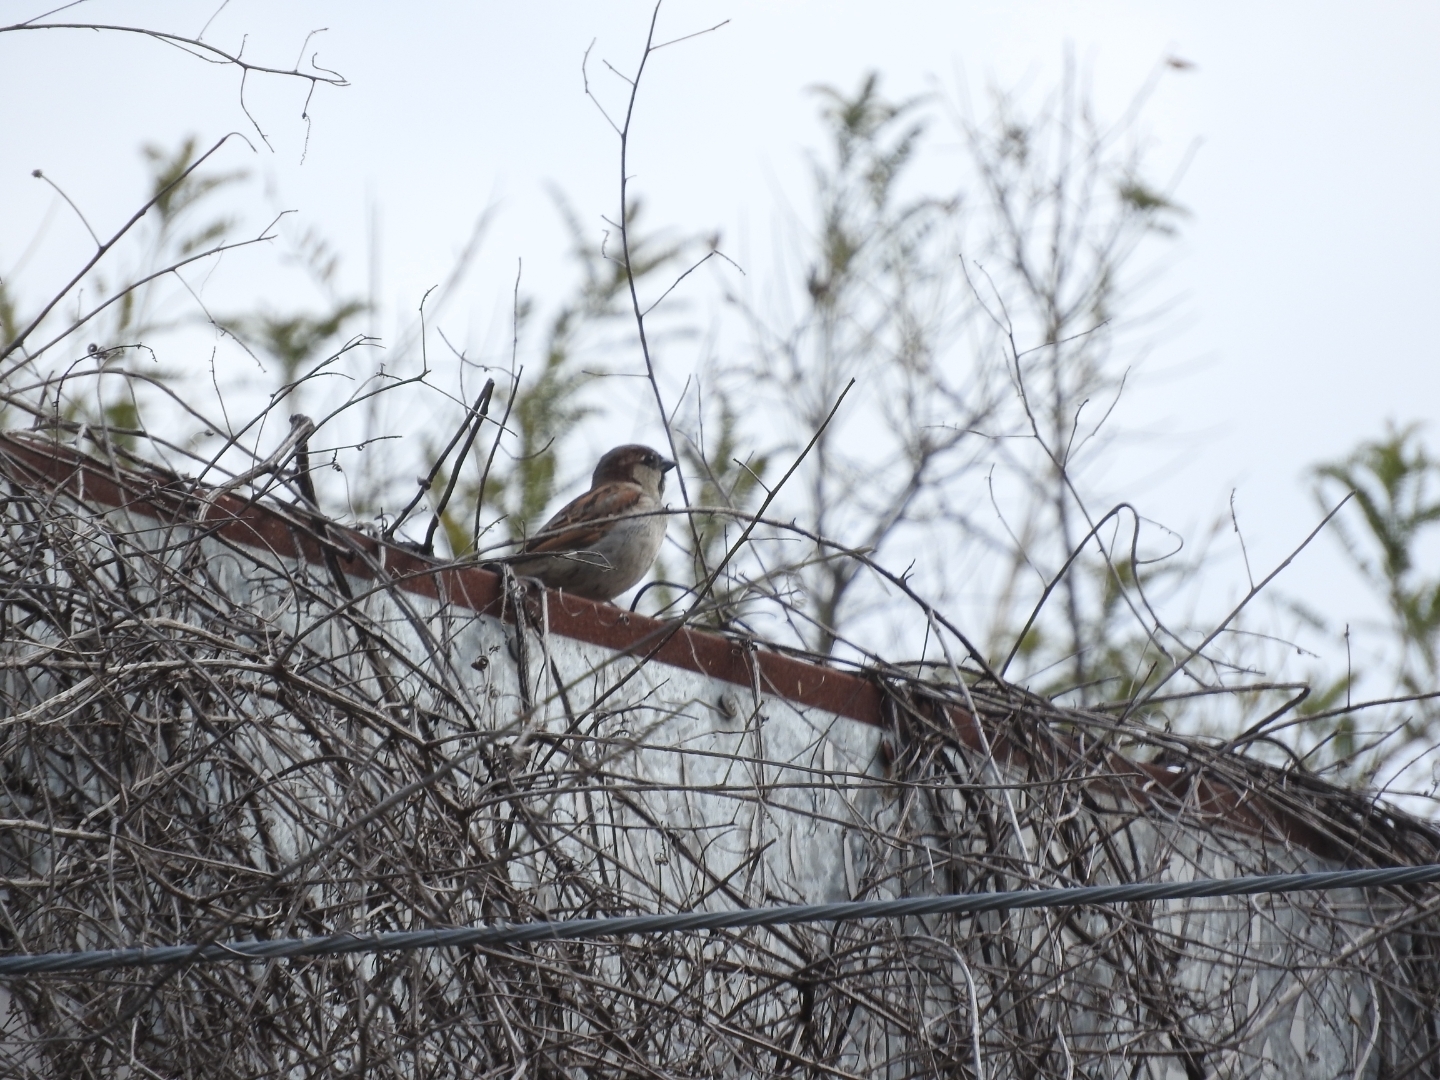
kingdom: Animalia
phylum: Chordata
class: Aves
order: Passeriformes
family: Passeridae
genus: Passer
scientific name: Passer domesticus
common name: House sparrow
